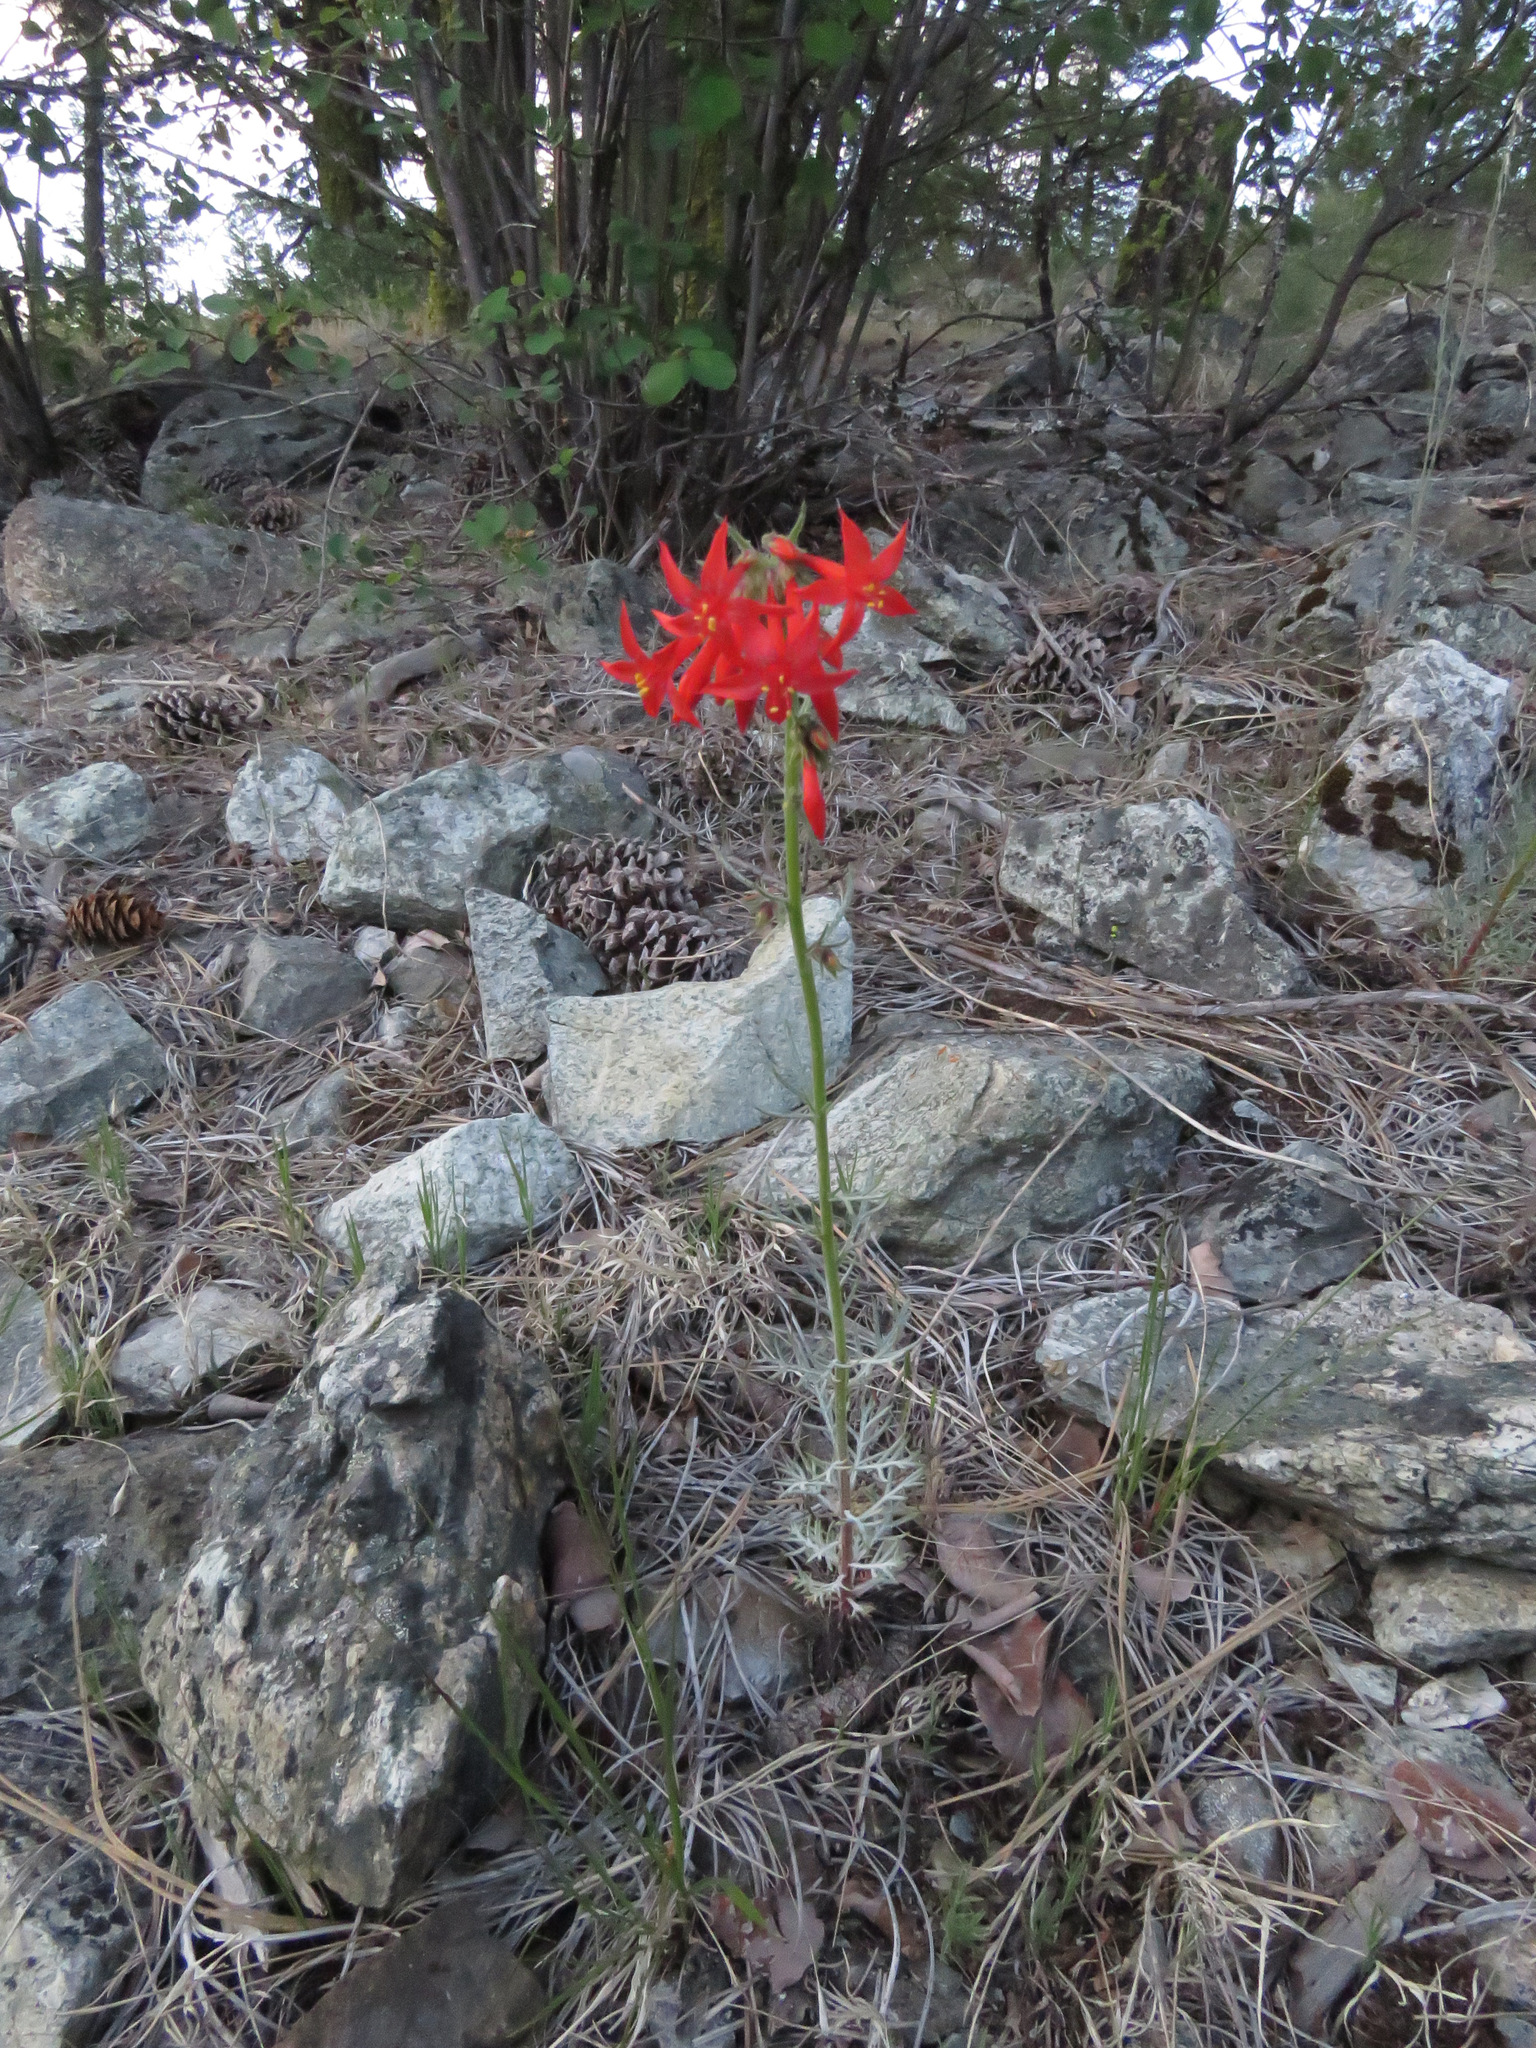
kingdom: Plantae
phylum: Tracheophyta
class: Magnoliopsida
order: Ericales
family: Polemoniaceae
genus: Ipomopsis
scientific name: Ipomopsis aggregata
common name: Scarlet gilia
